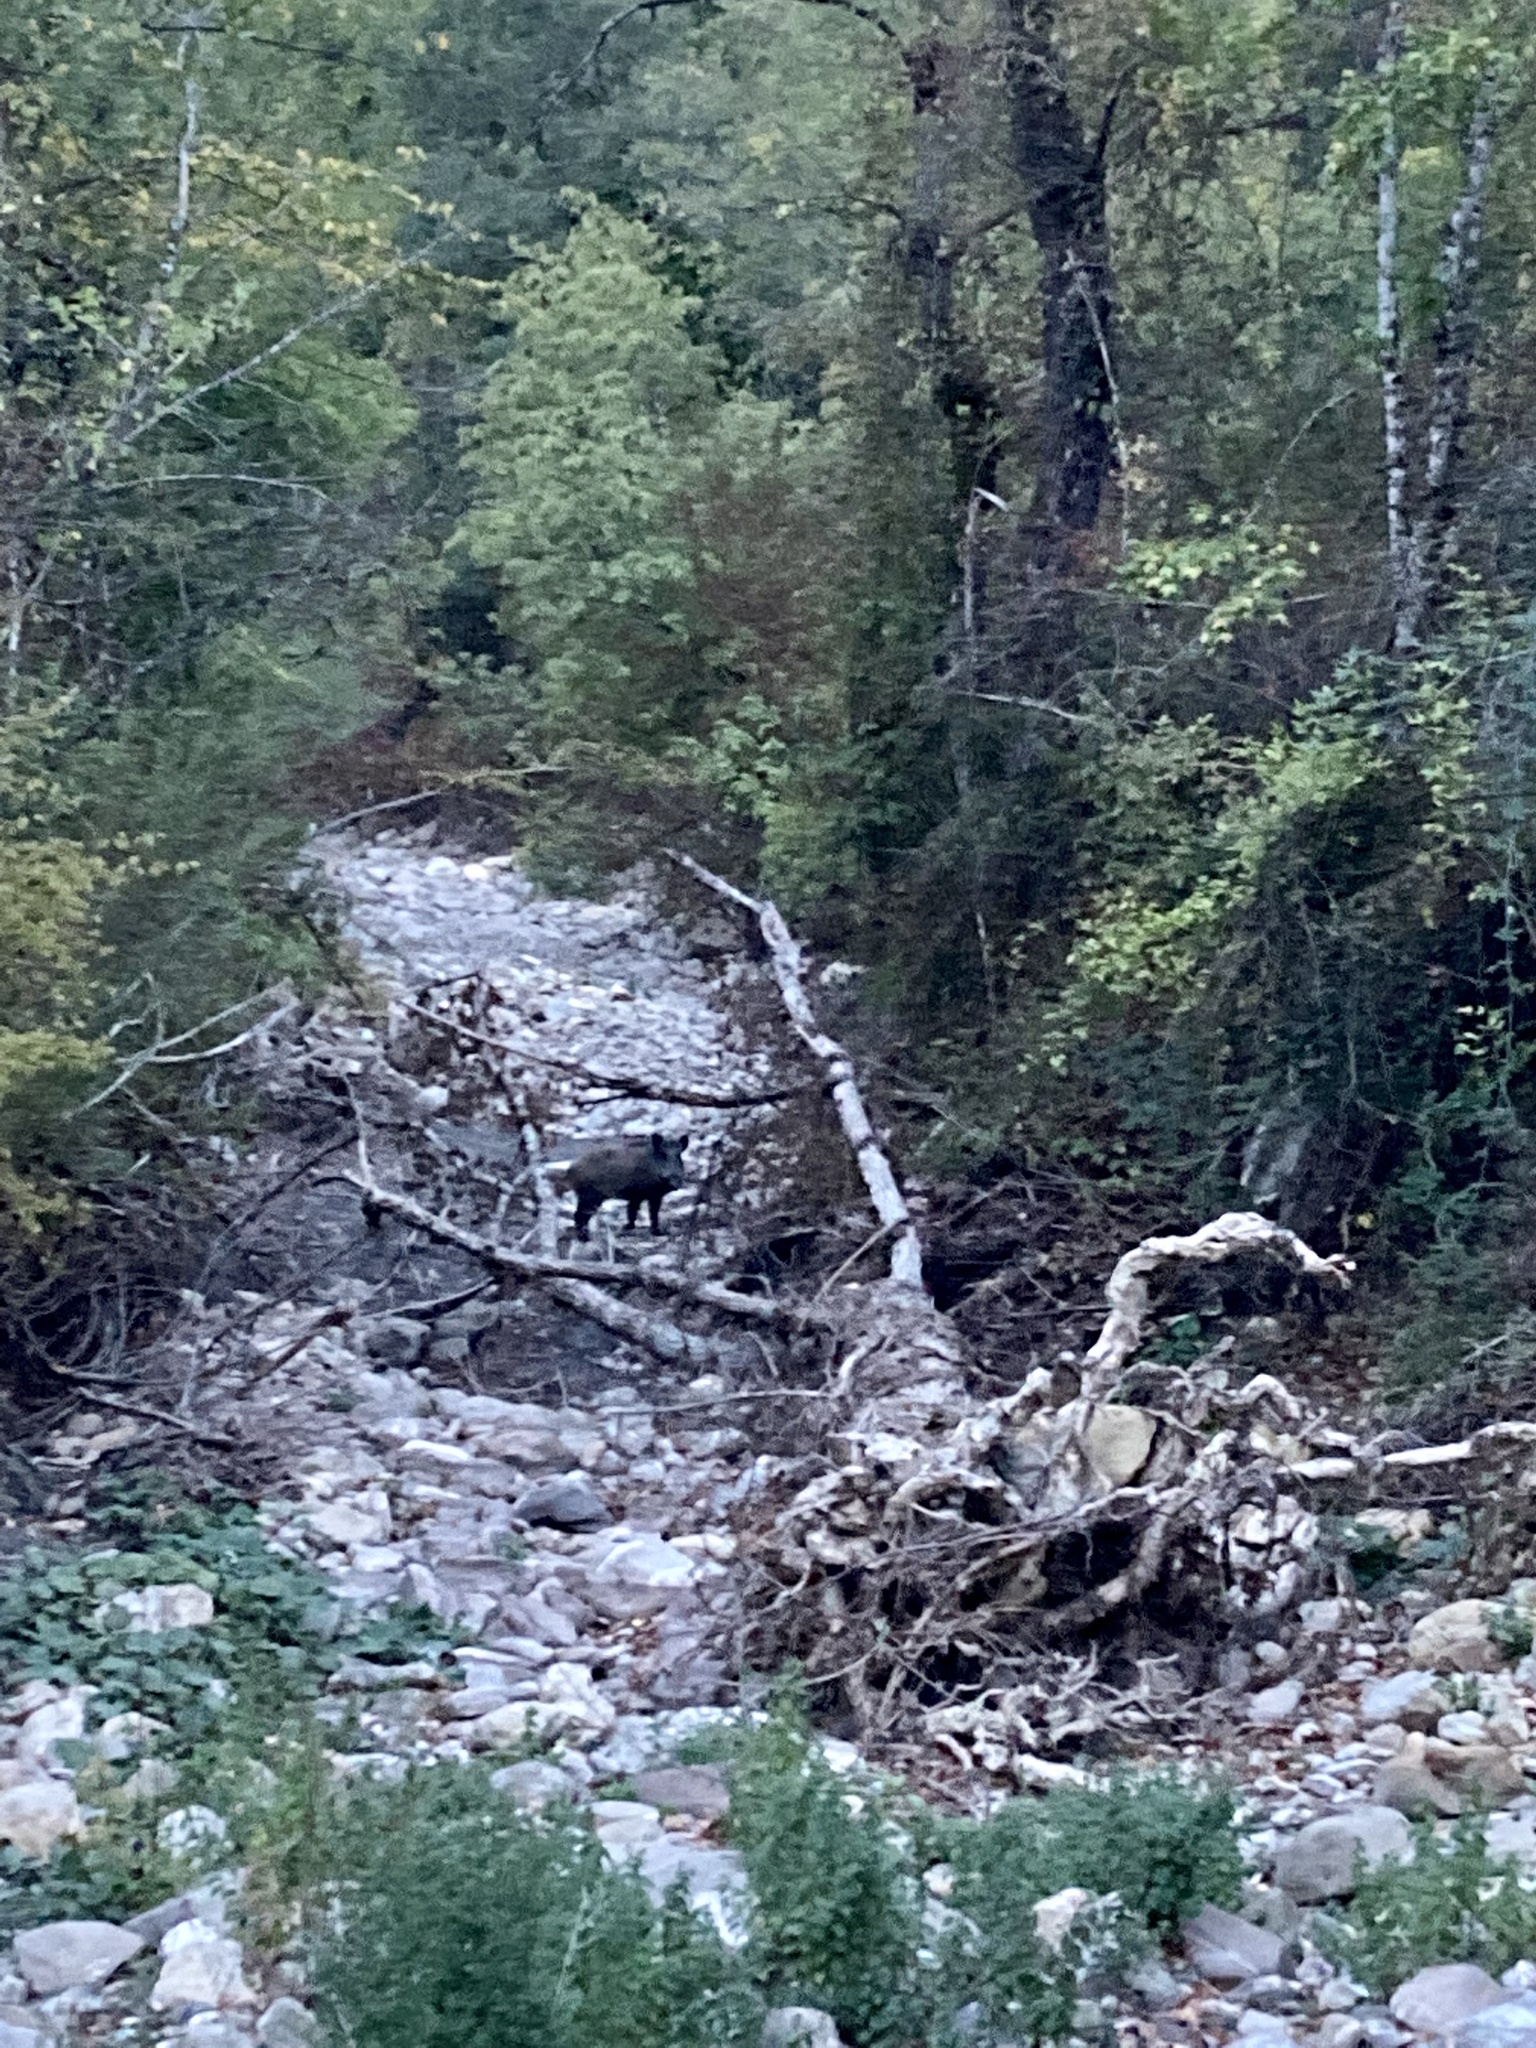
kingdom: Animalia
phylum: Chordata
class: Mammalia
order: Artiodactyla
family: Suidae
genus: Sus
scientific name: Sus scrofa
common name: Wild boar
